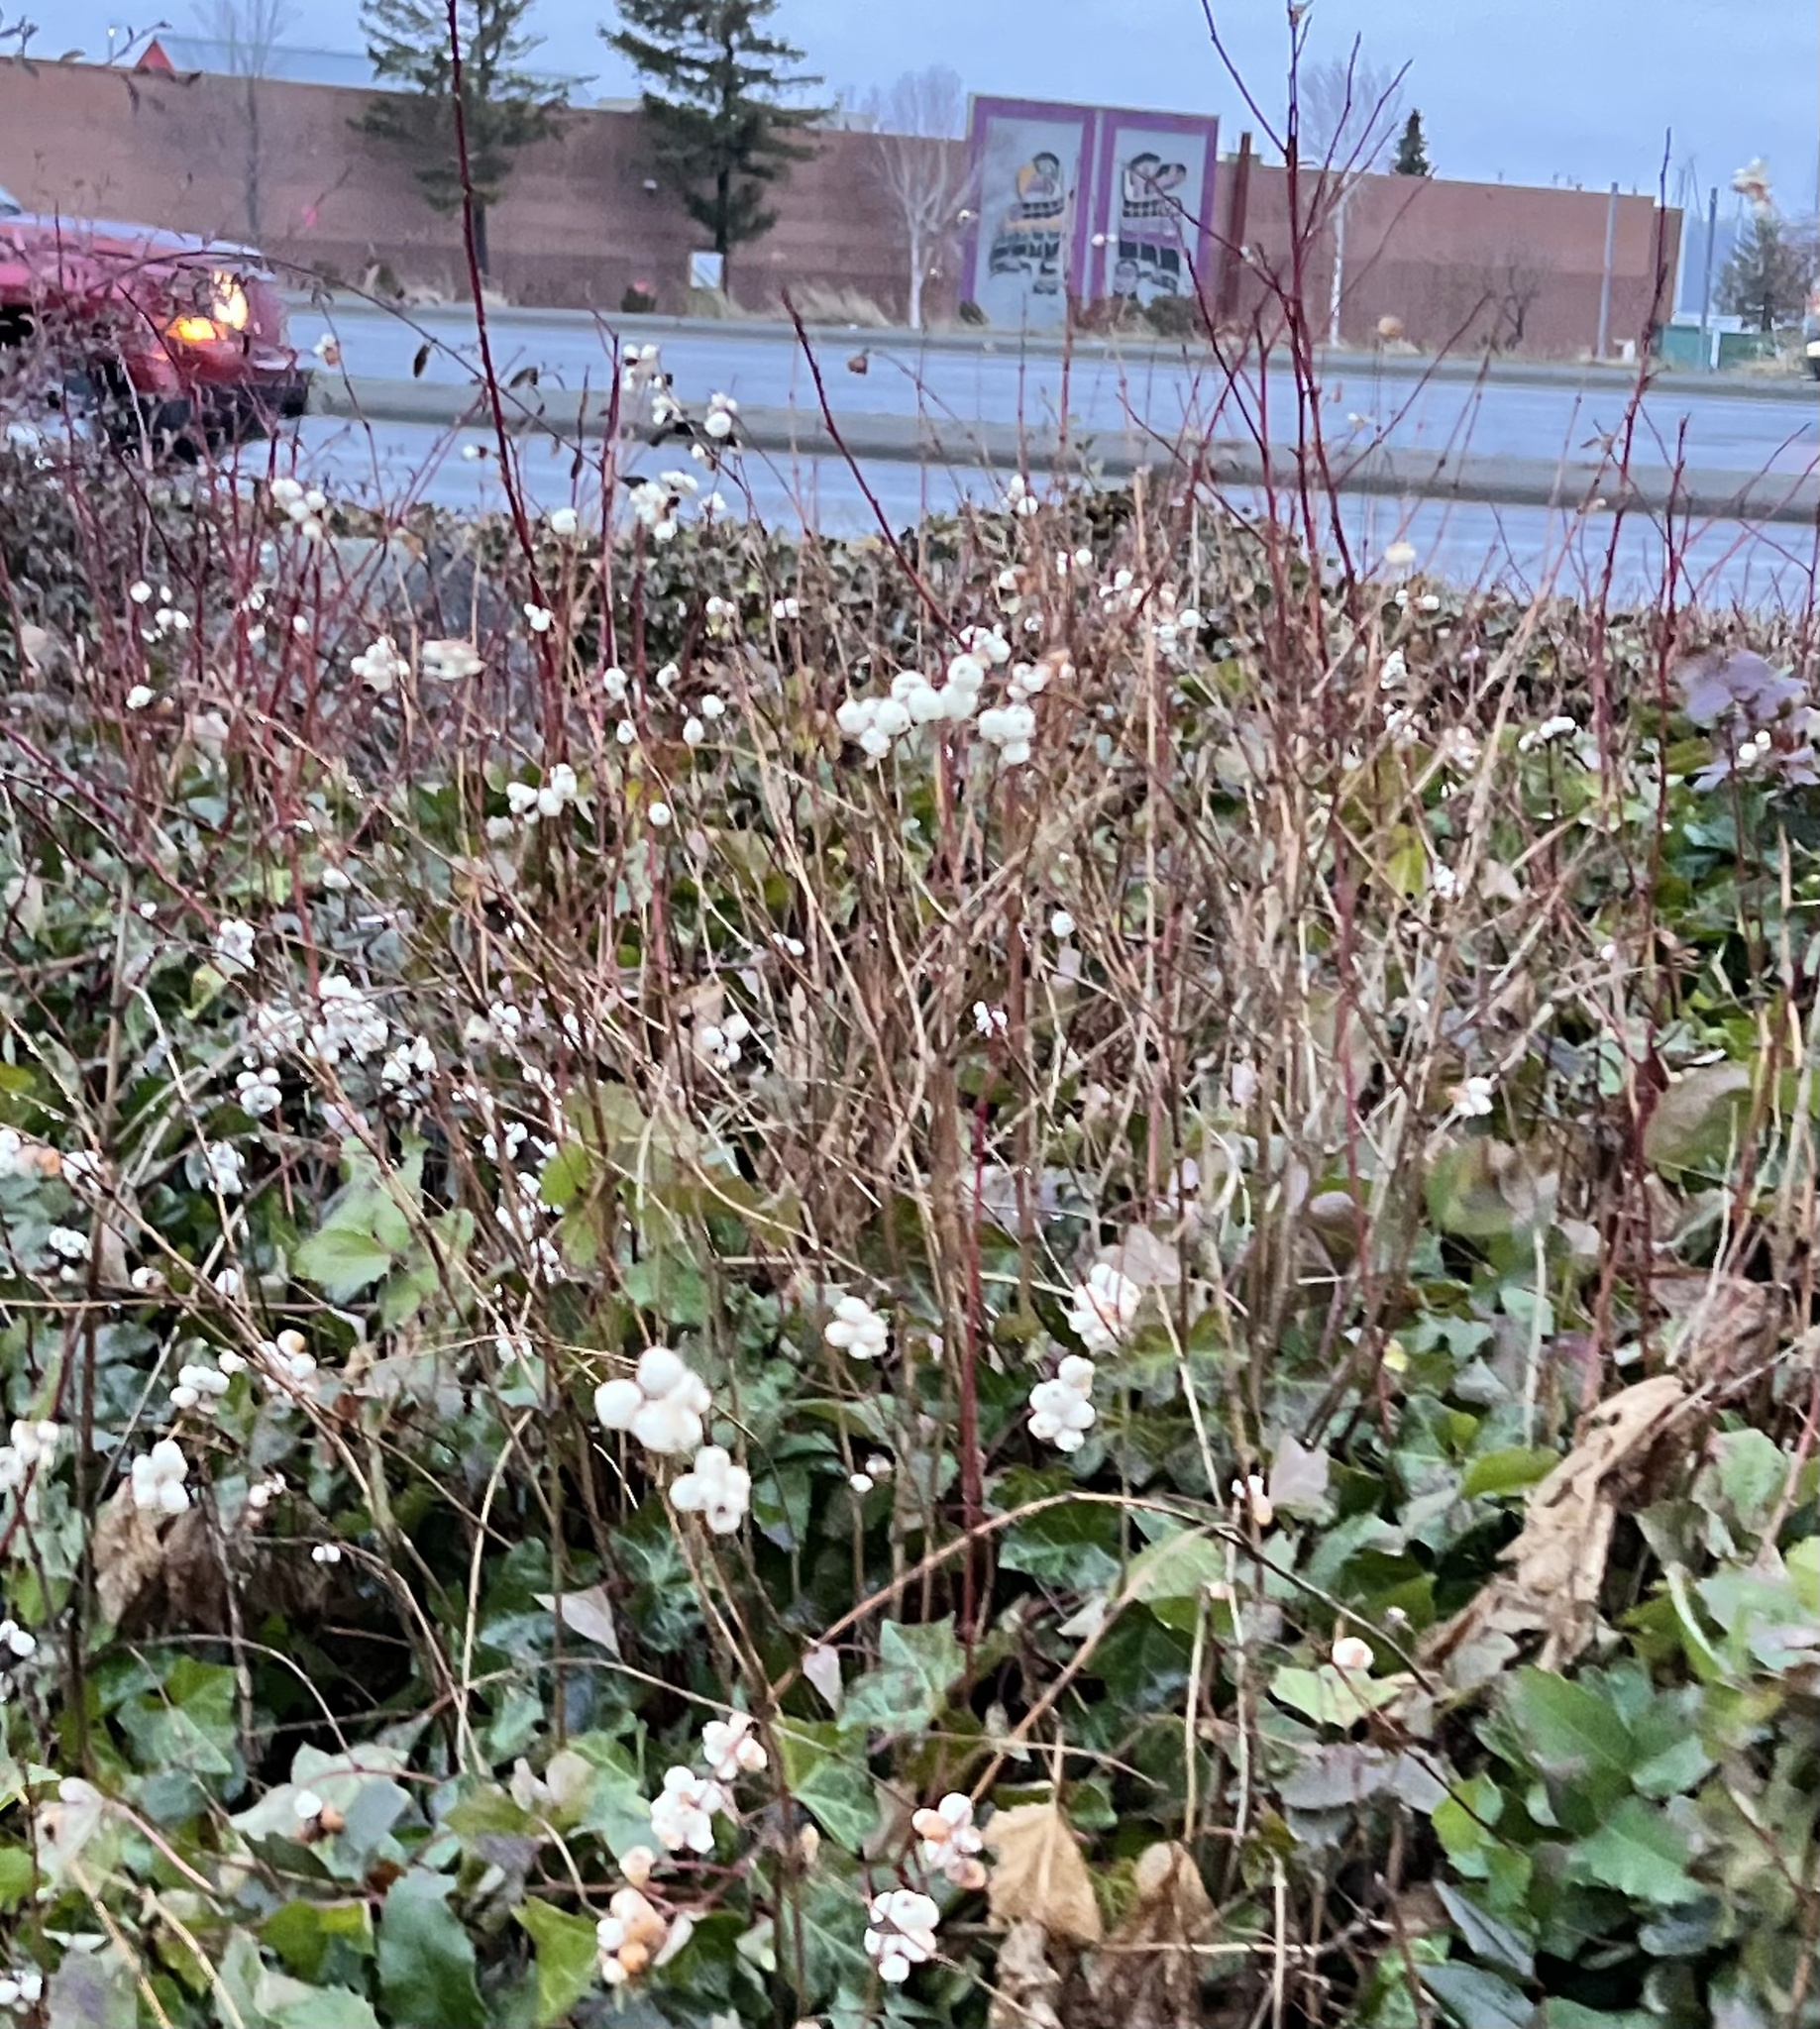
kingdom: Plantae
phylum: Tracheophyta
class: Magnoliopsida
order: Dipsacales
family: Caprifoliaceae
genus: Symphoricarpos
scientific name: Symphoricarpos albus
